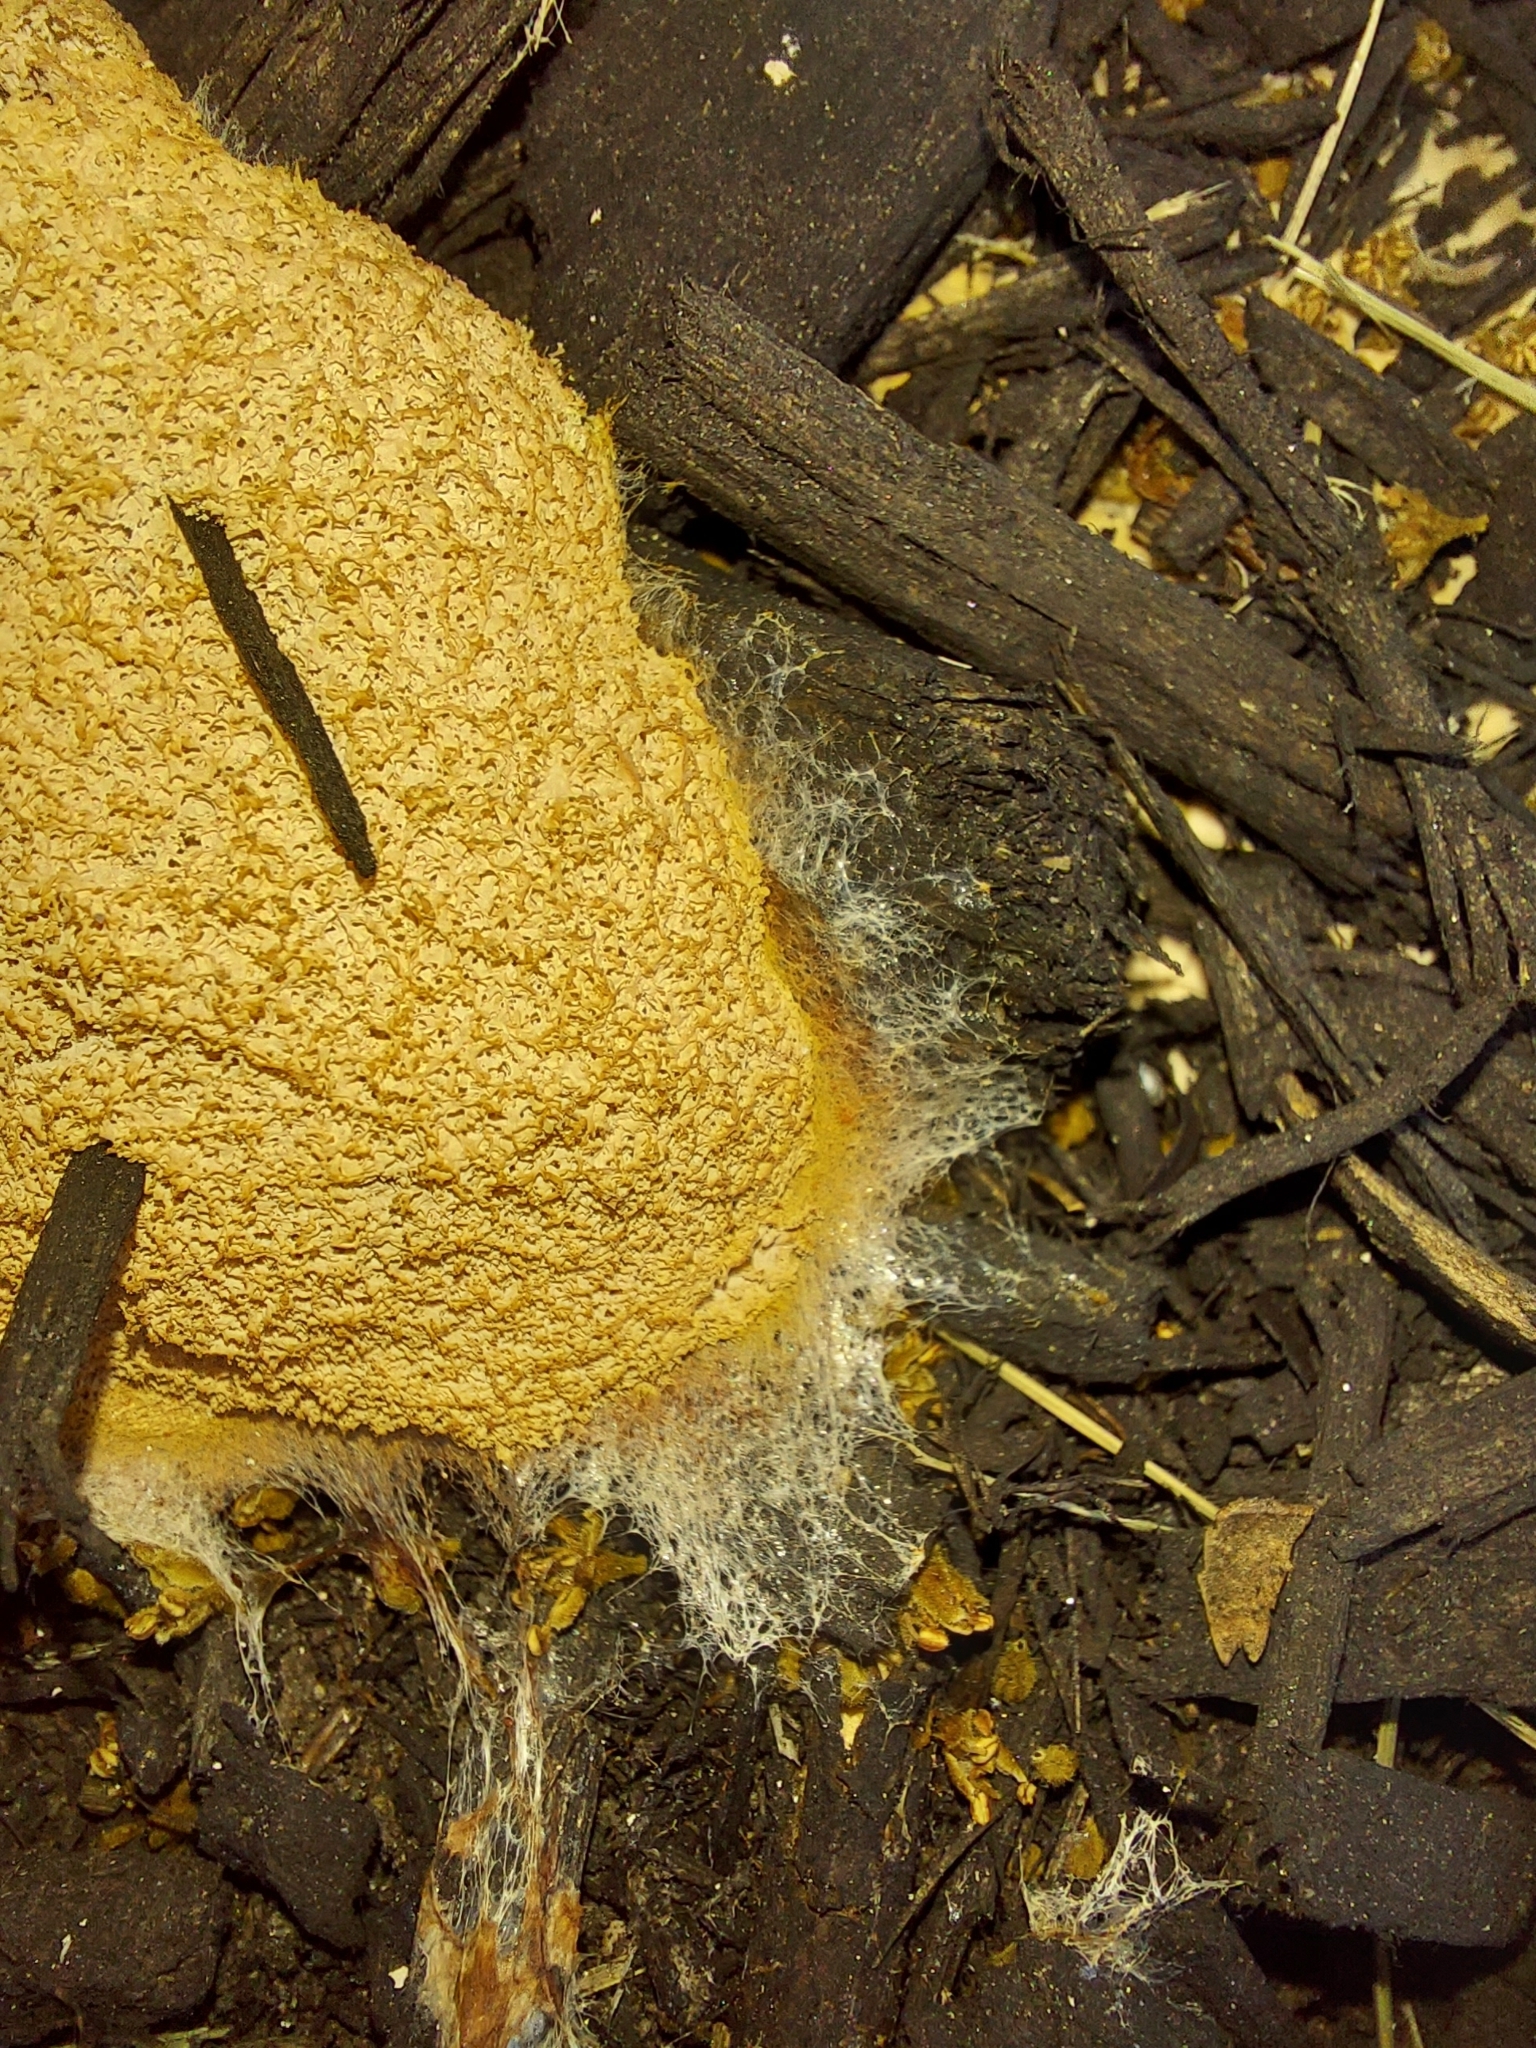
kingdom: Protozoa
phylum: Mycetozoa
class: Myxomycetes
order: Physarales
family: Physaraceae
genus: Fuligo
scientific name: Fuligo septica
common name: Dog vomit slime mold
